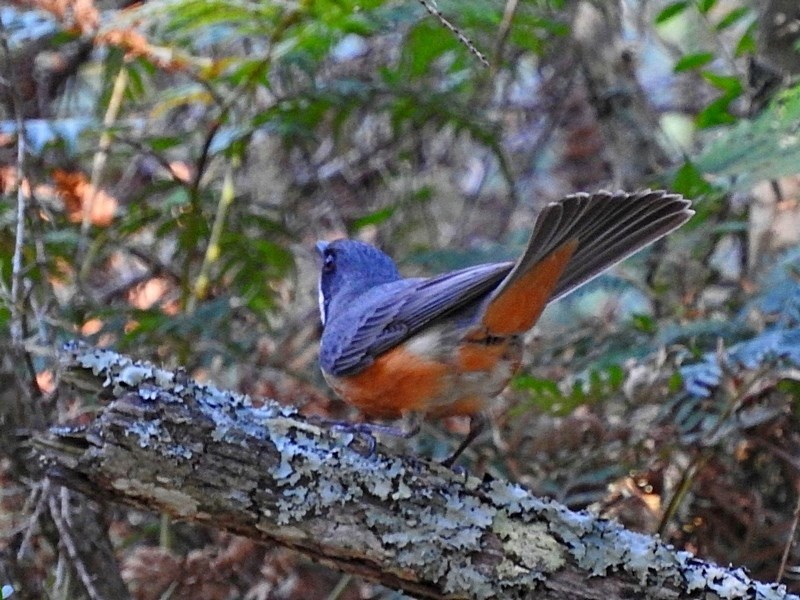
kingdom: Animalia
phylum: Chordata
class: Aves
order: Passeriformes
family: Pachycephalidae
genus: Pachycephala
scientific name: Pachycephala rufiventris
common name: Rufous whistler
